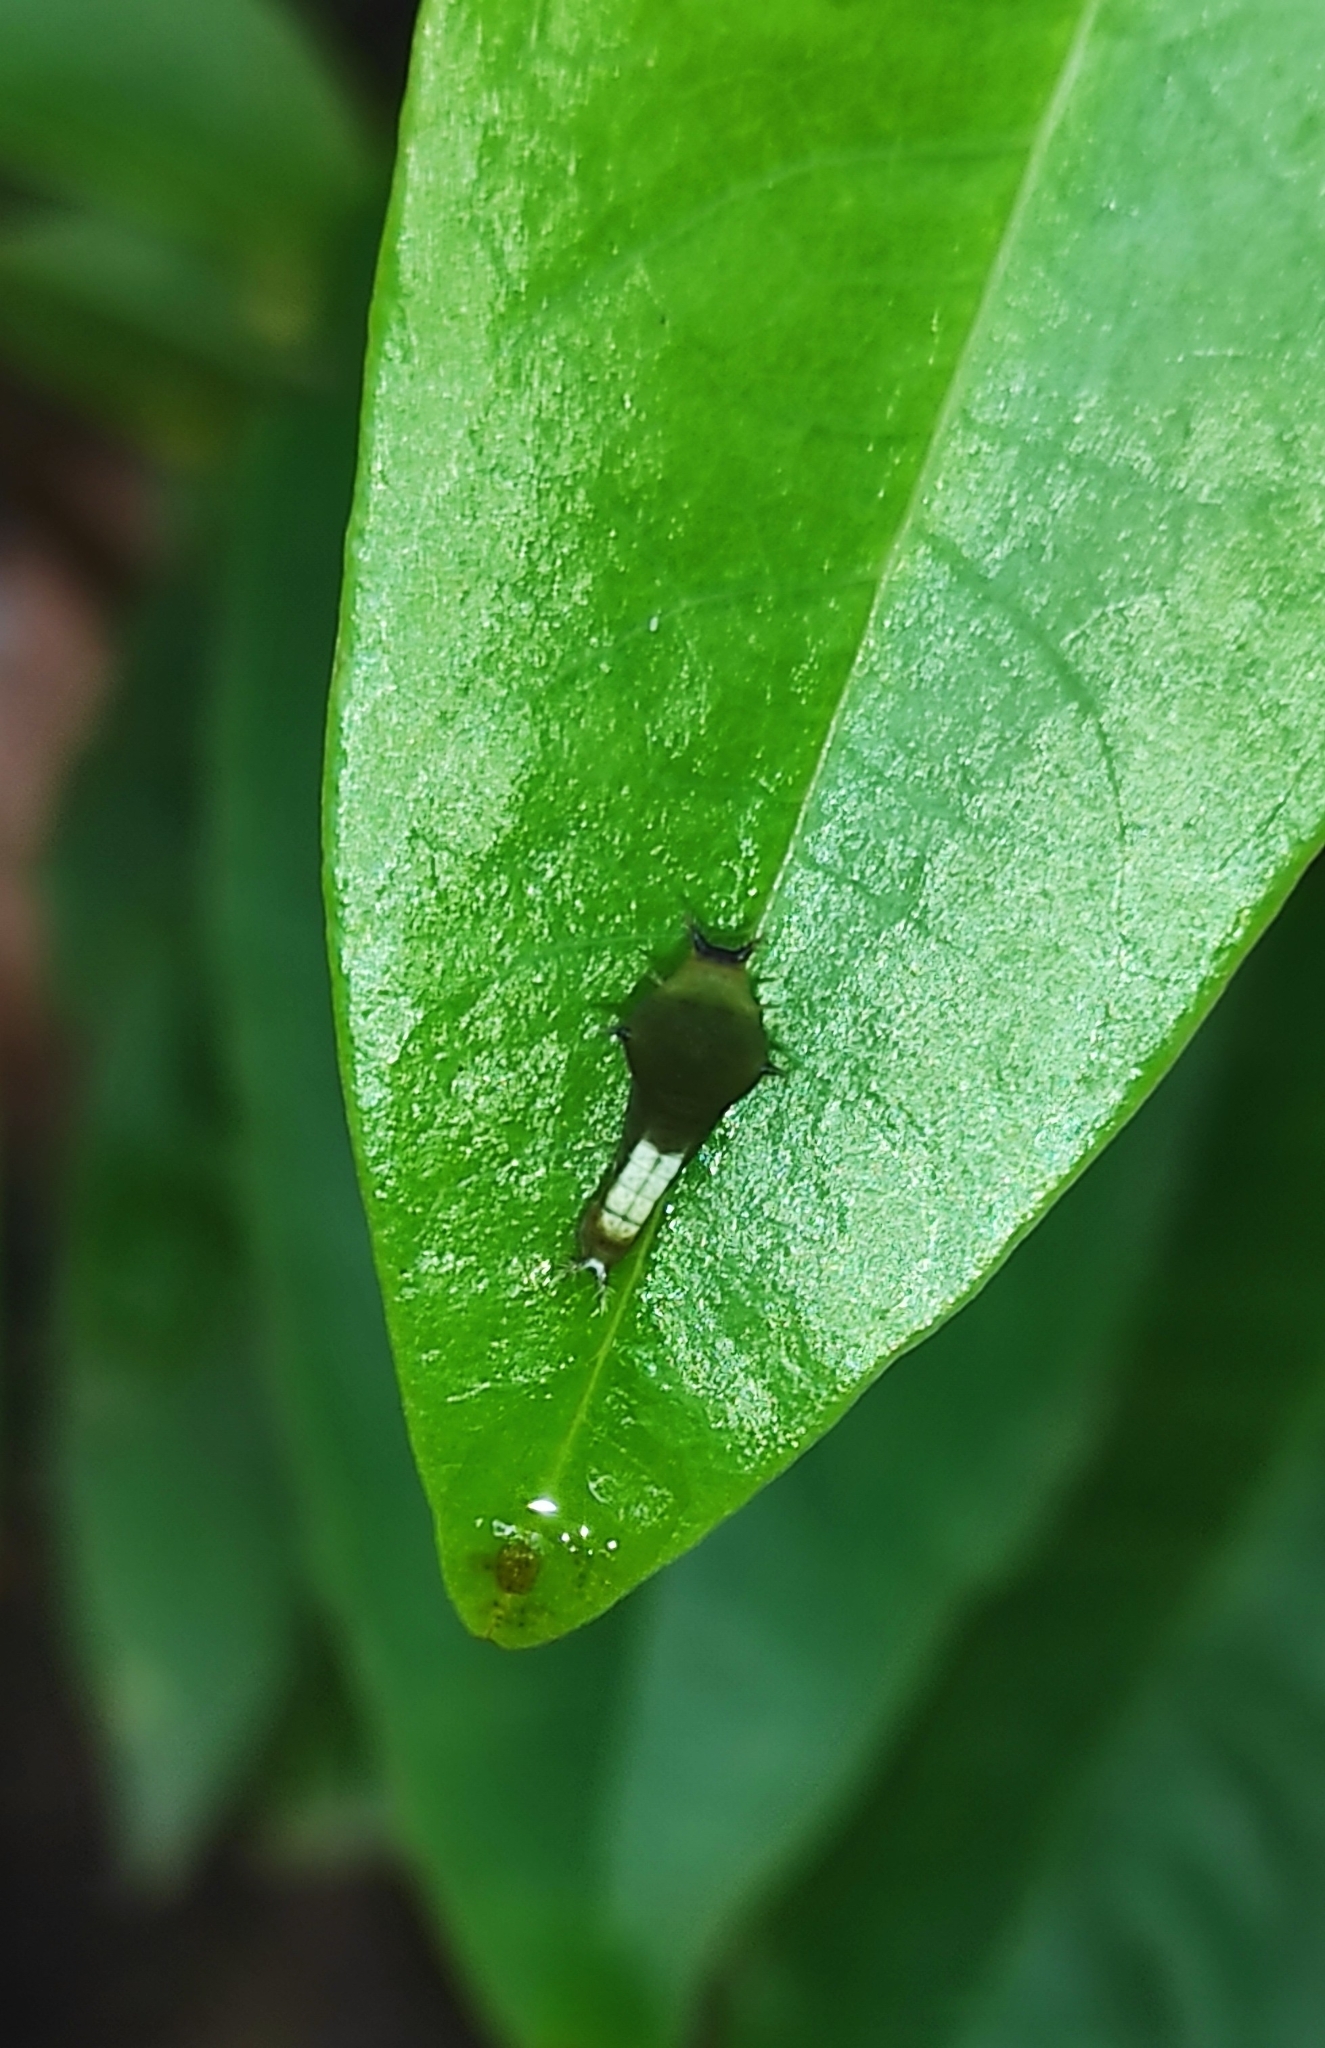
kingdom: Animalia
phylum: Arthropoda
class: Insecta
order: Lepidoptera
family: Papilionidae
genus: Graphium
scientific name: Graphium agamemnon
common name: Tailed jay
